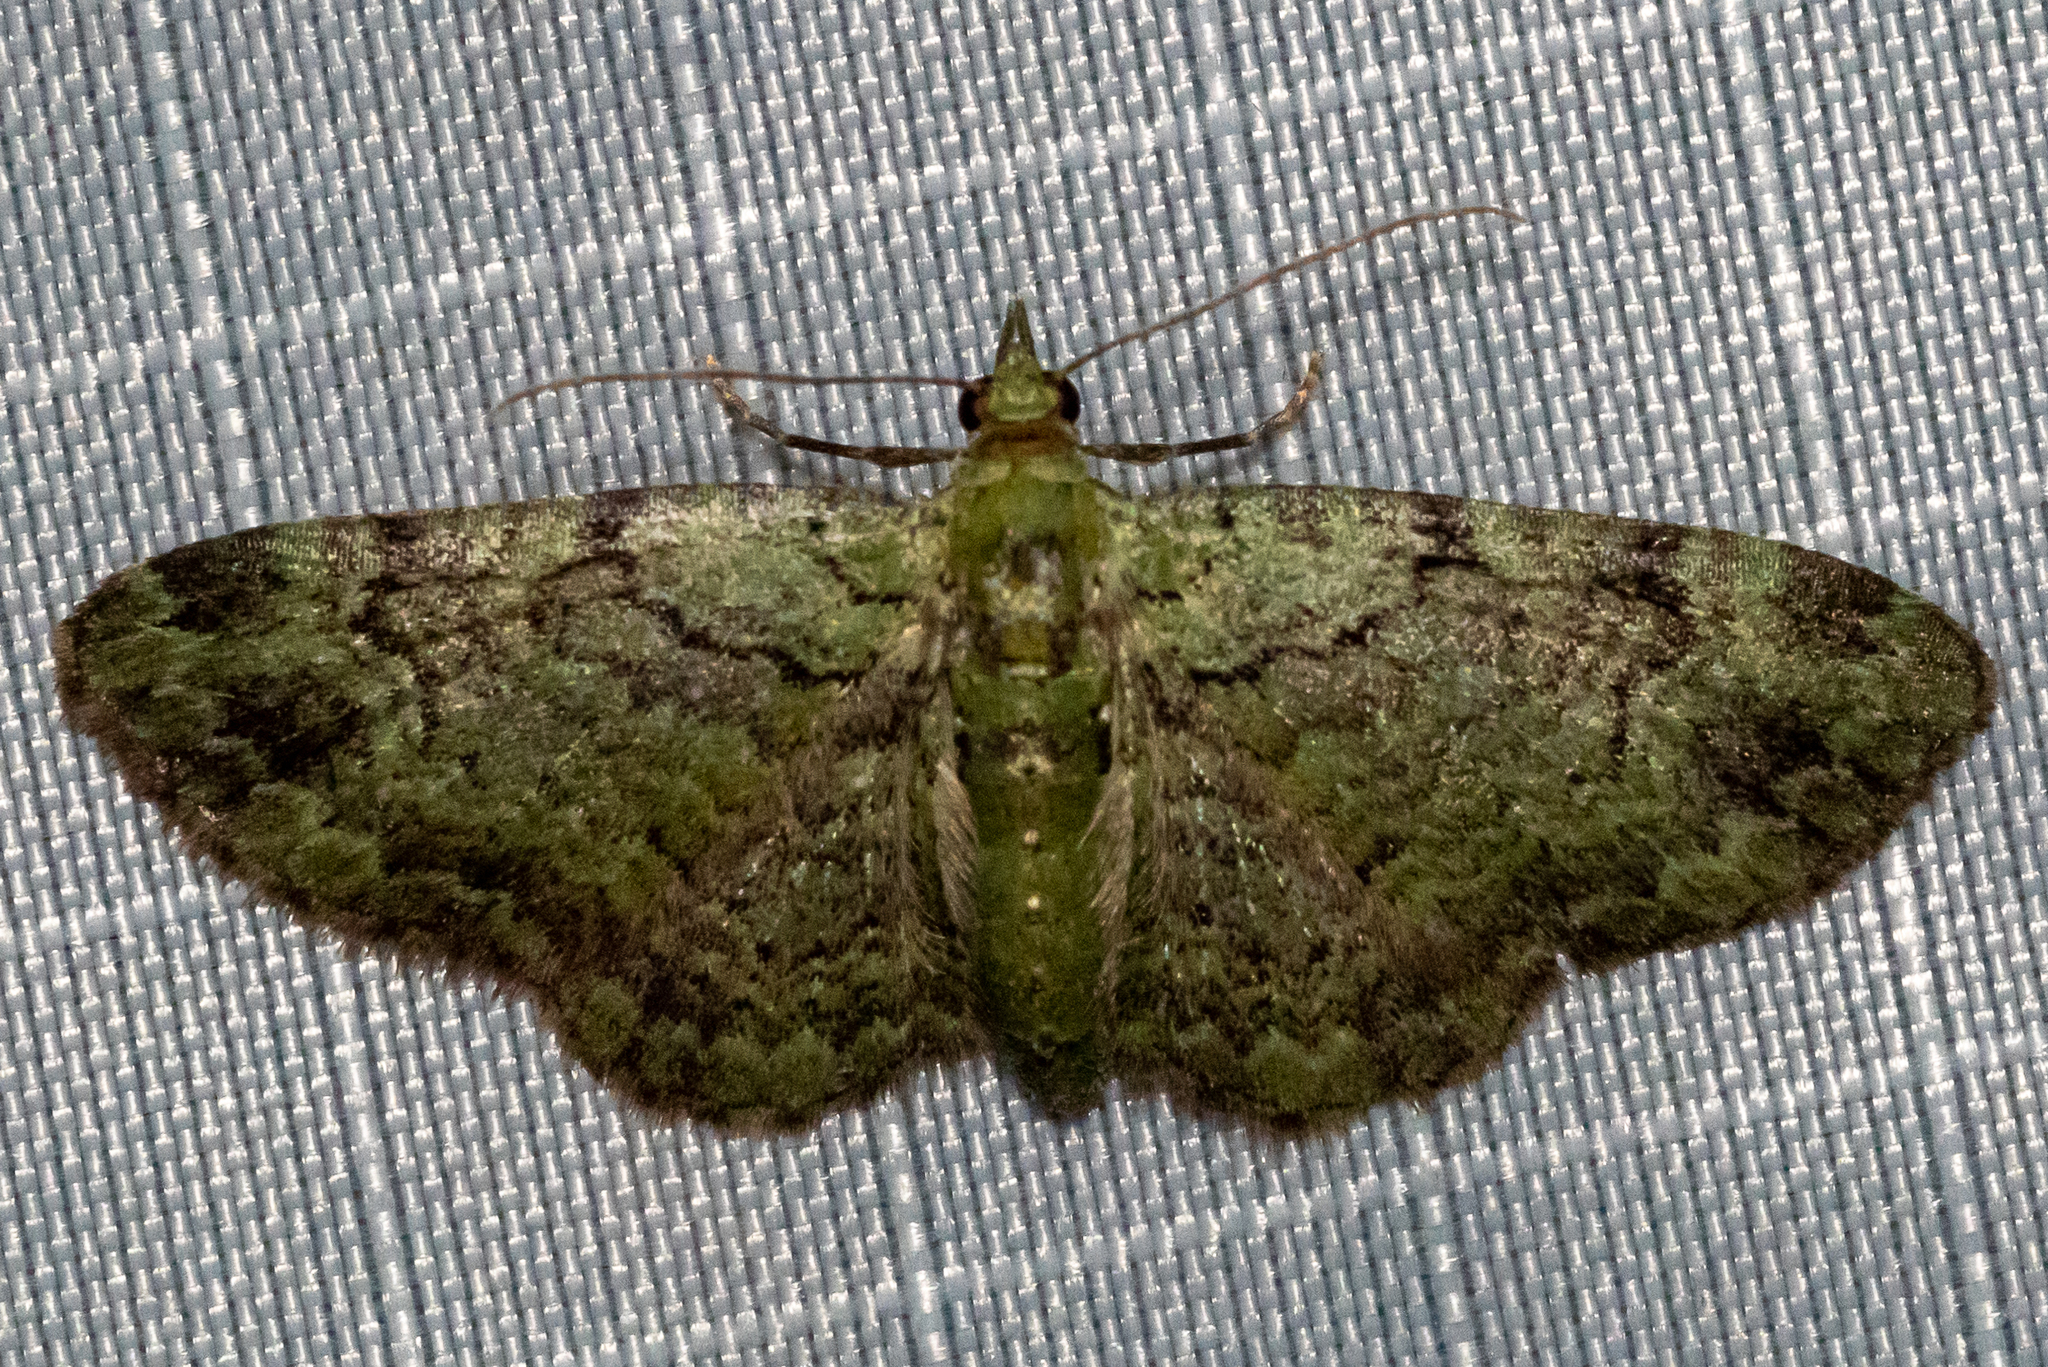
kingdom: Animalia
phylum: Arthropoda
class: Insecta
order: Lepidoptera
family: Geometridae
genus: Pasiphila
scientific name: Pasiphila rectangulata
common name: Green pug
